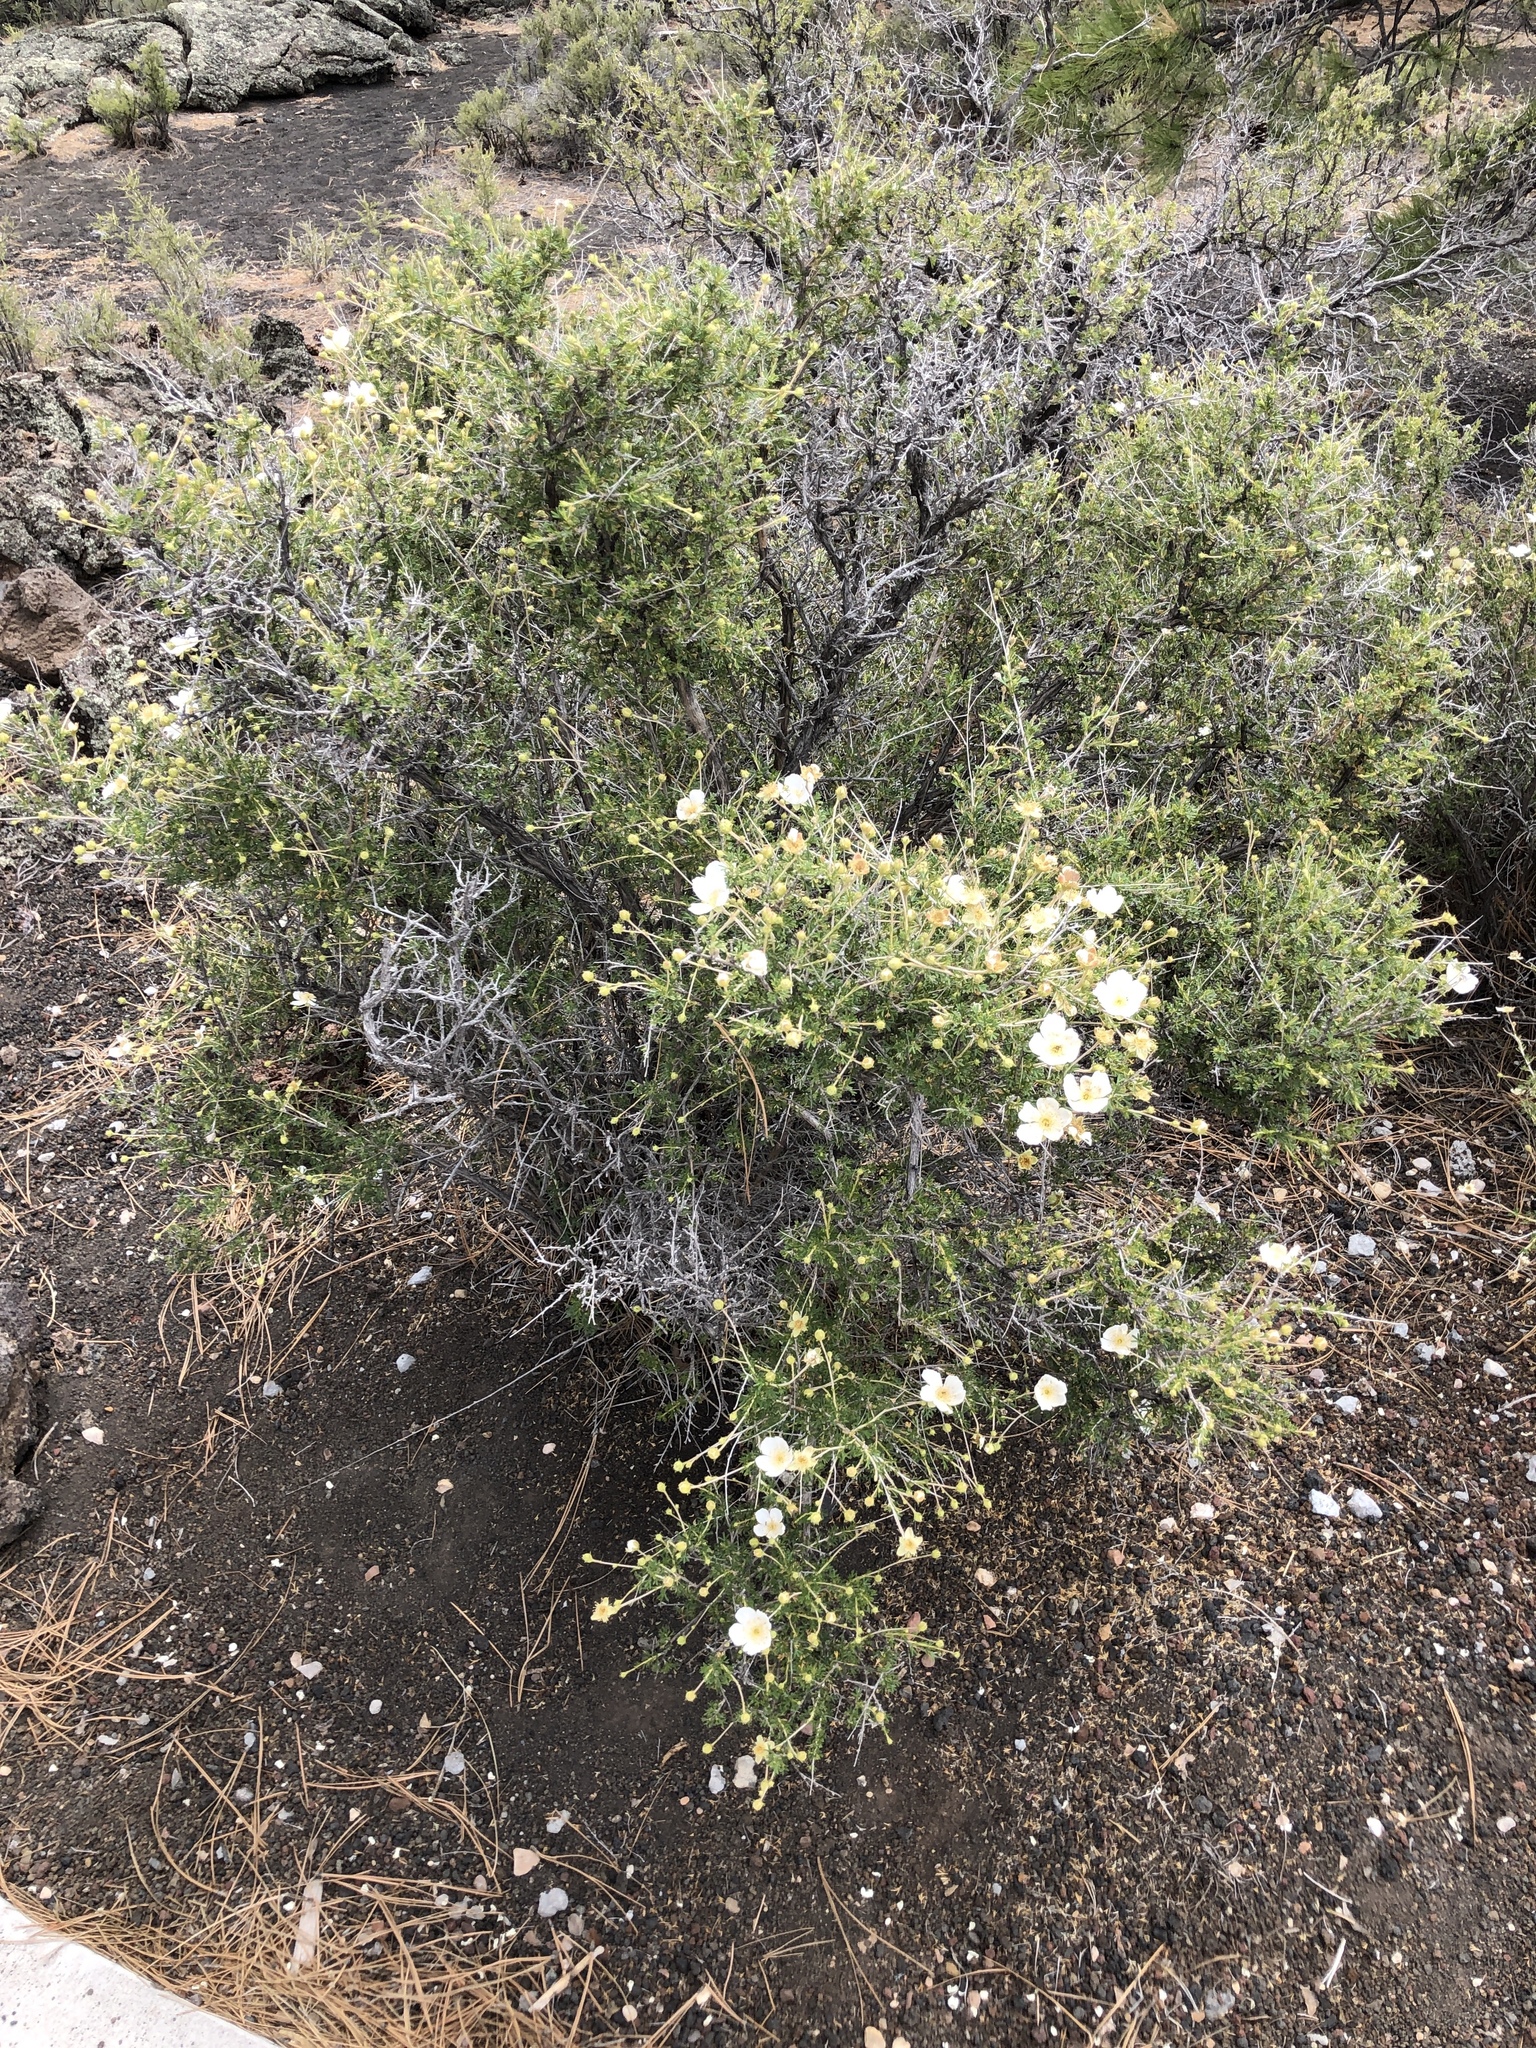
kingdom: Plantae
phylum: Tracheophyta
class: Magnoliopsida
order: Rosales
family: Rosaceae
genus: Fallugia
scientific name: Fallugia paradoxa
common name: Apache-plume
